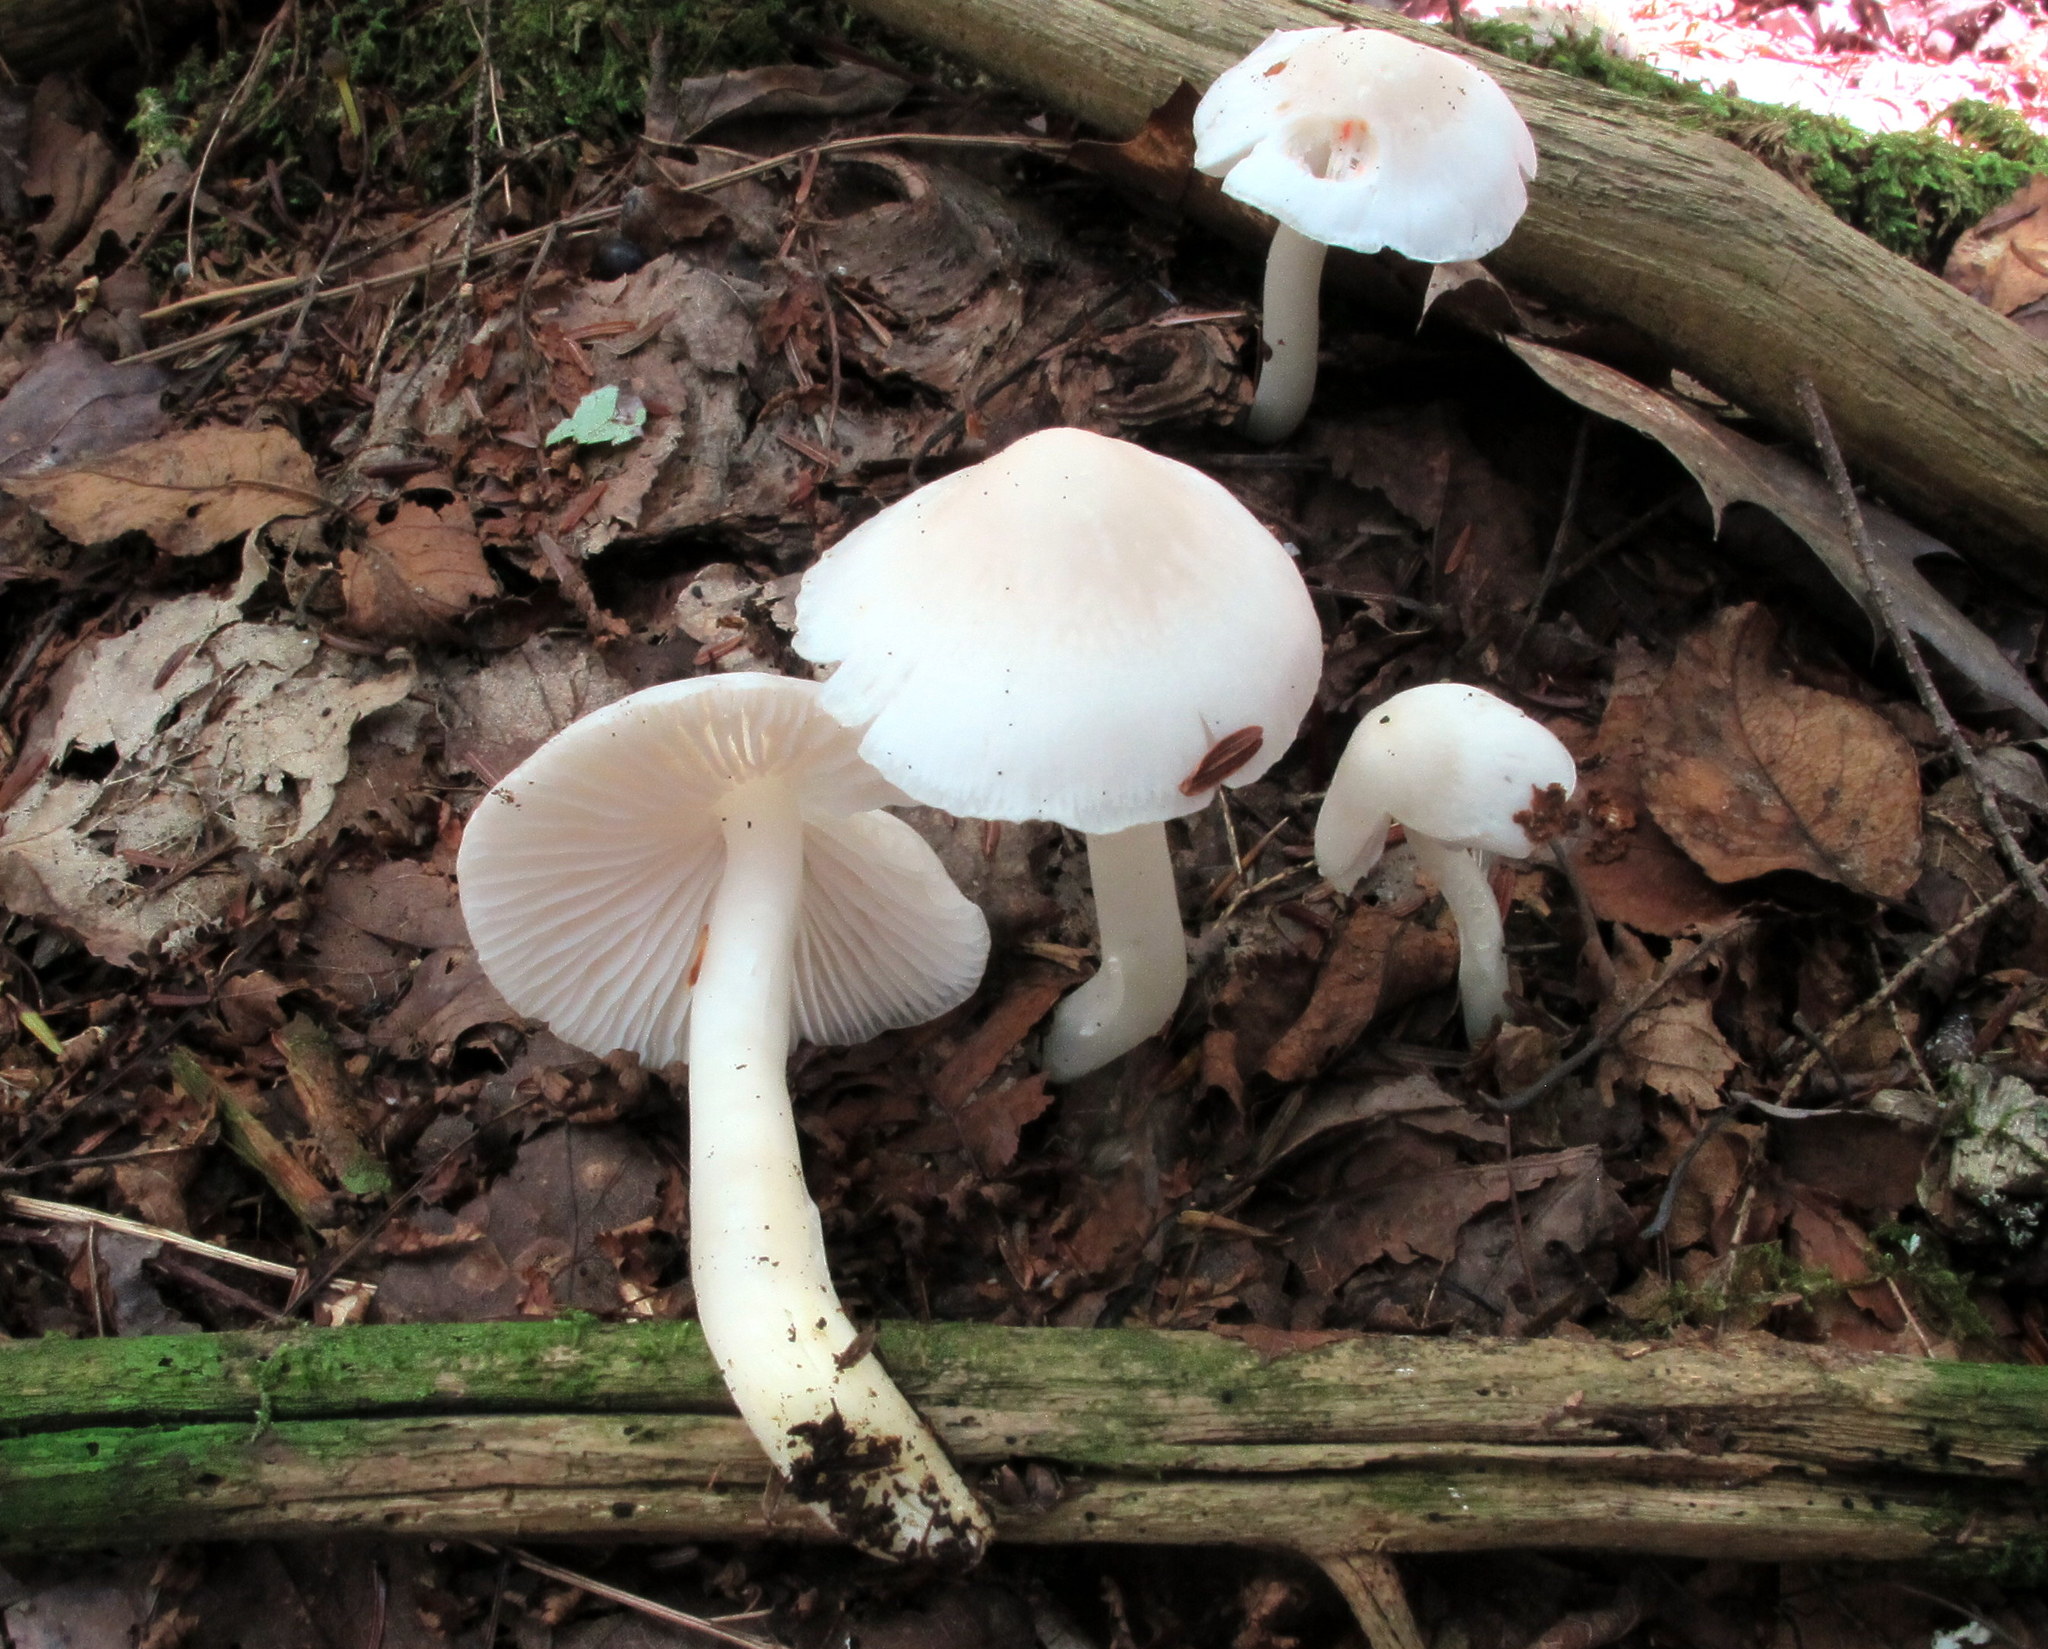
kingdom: Fungi
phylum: Basidiomycota
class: Agaricomycetes
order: Agaricales
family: Hygrophoraceae
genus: Hygrophorus
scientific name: Hygrophorus eburneus
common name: Ivory wax-cap
